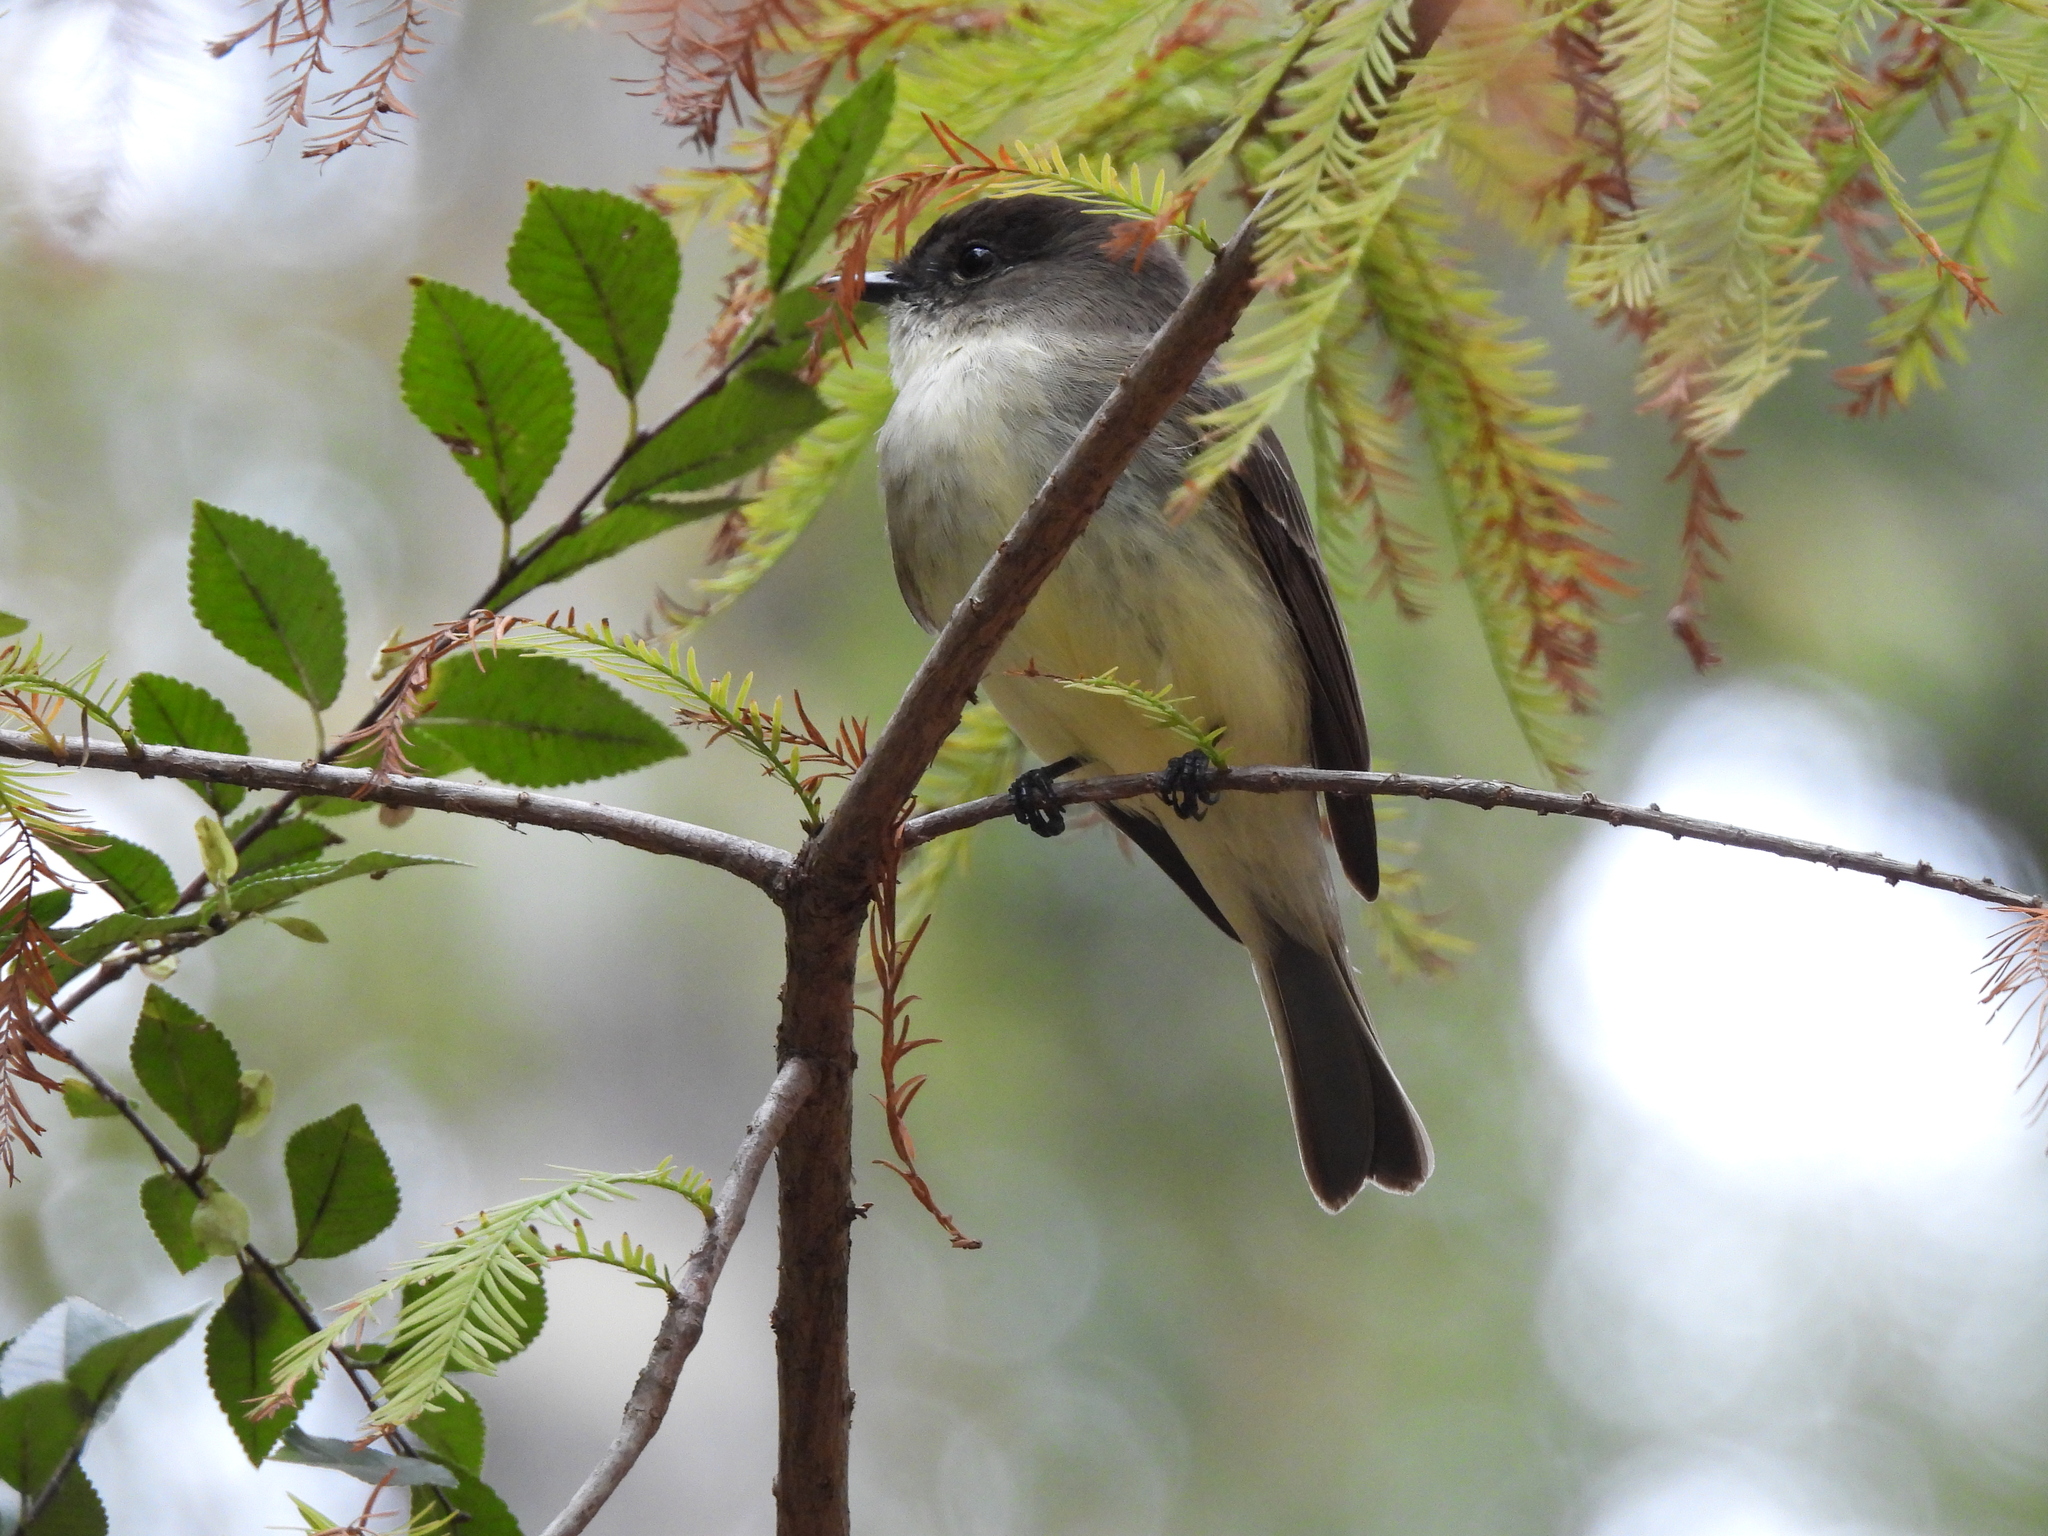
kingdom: Animalia
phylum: Chordata
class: Aves
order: Passeriformes
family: Tyrannidae
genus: Sayornis
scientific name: Sayornis phoebe
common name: Eastern phoebe
